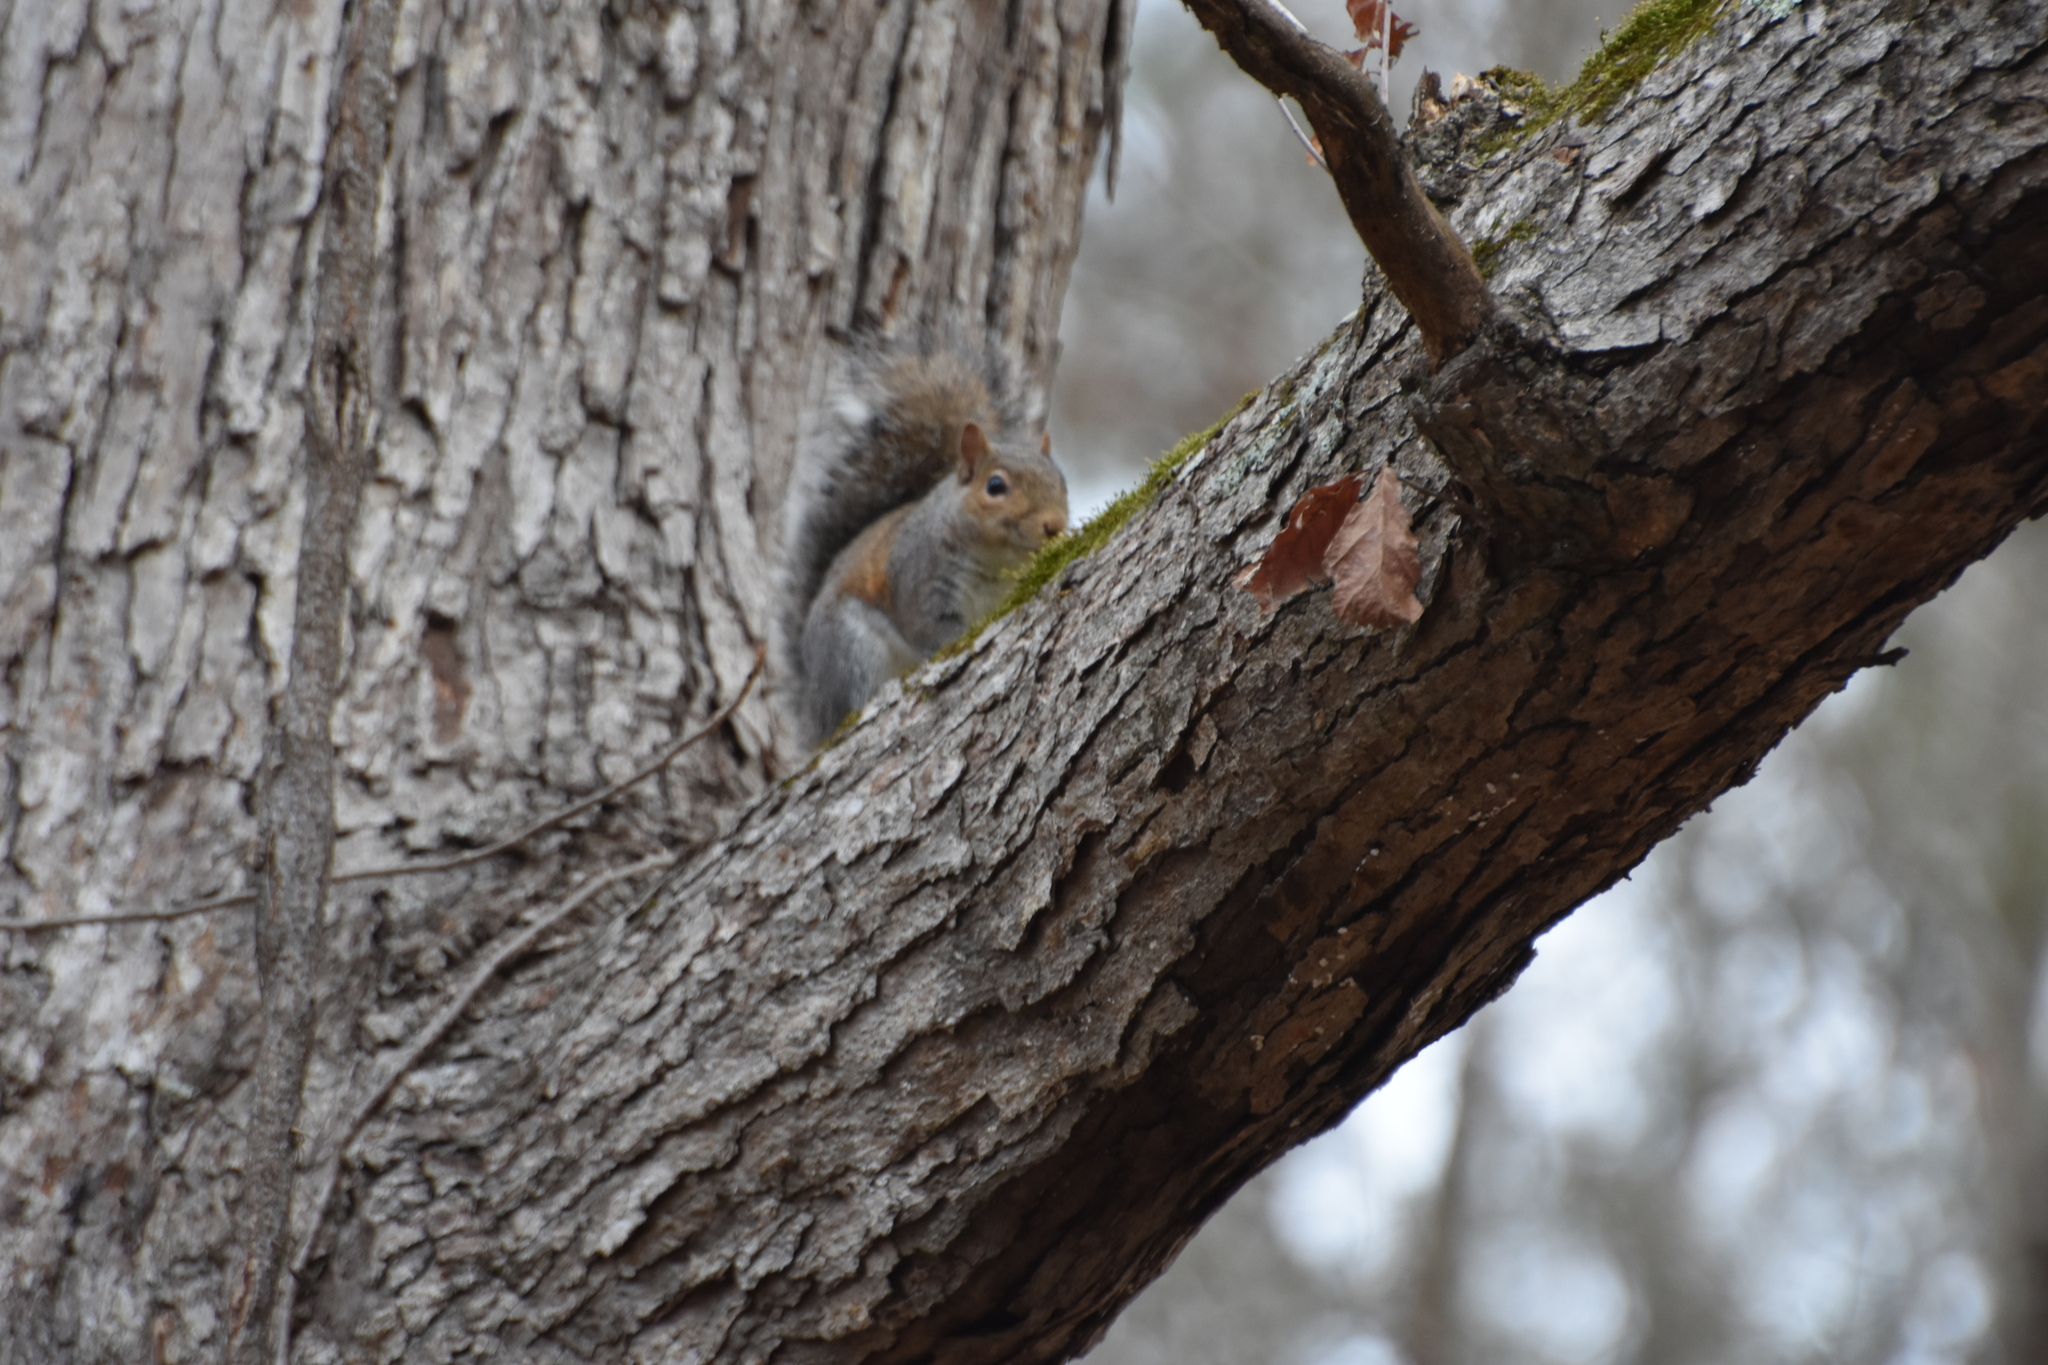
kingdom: Animalia
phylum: Chordata
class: Mammalia
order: Rodentia
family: Sciuridae
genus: Sciurus
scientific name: Sciurus carolinensis
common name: Eastern gray squirrel
